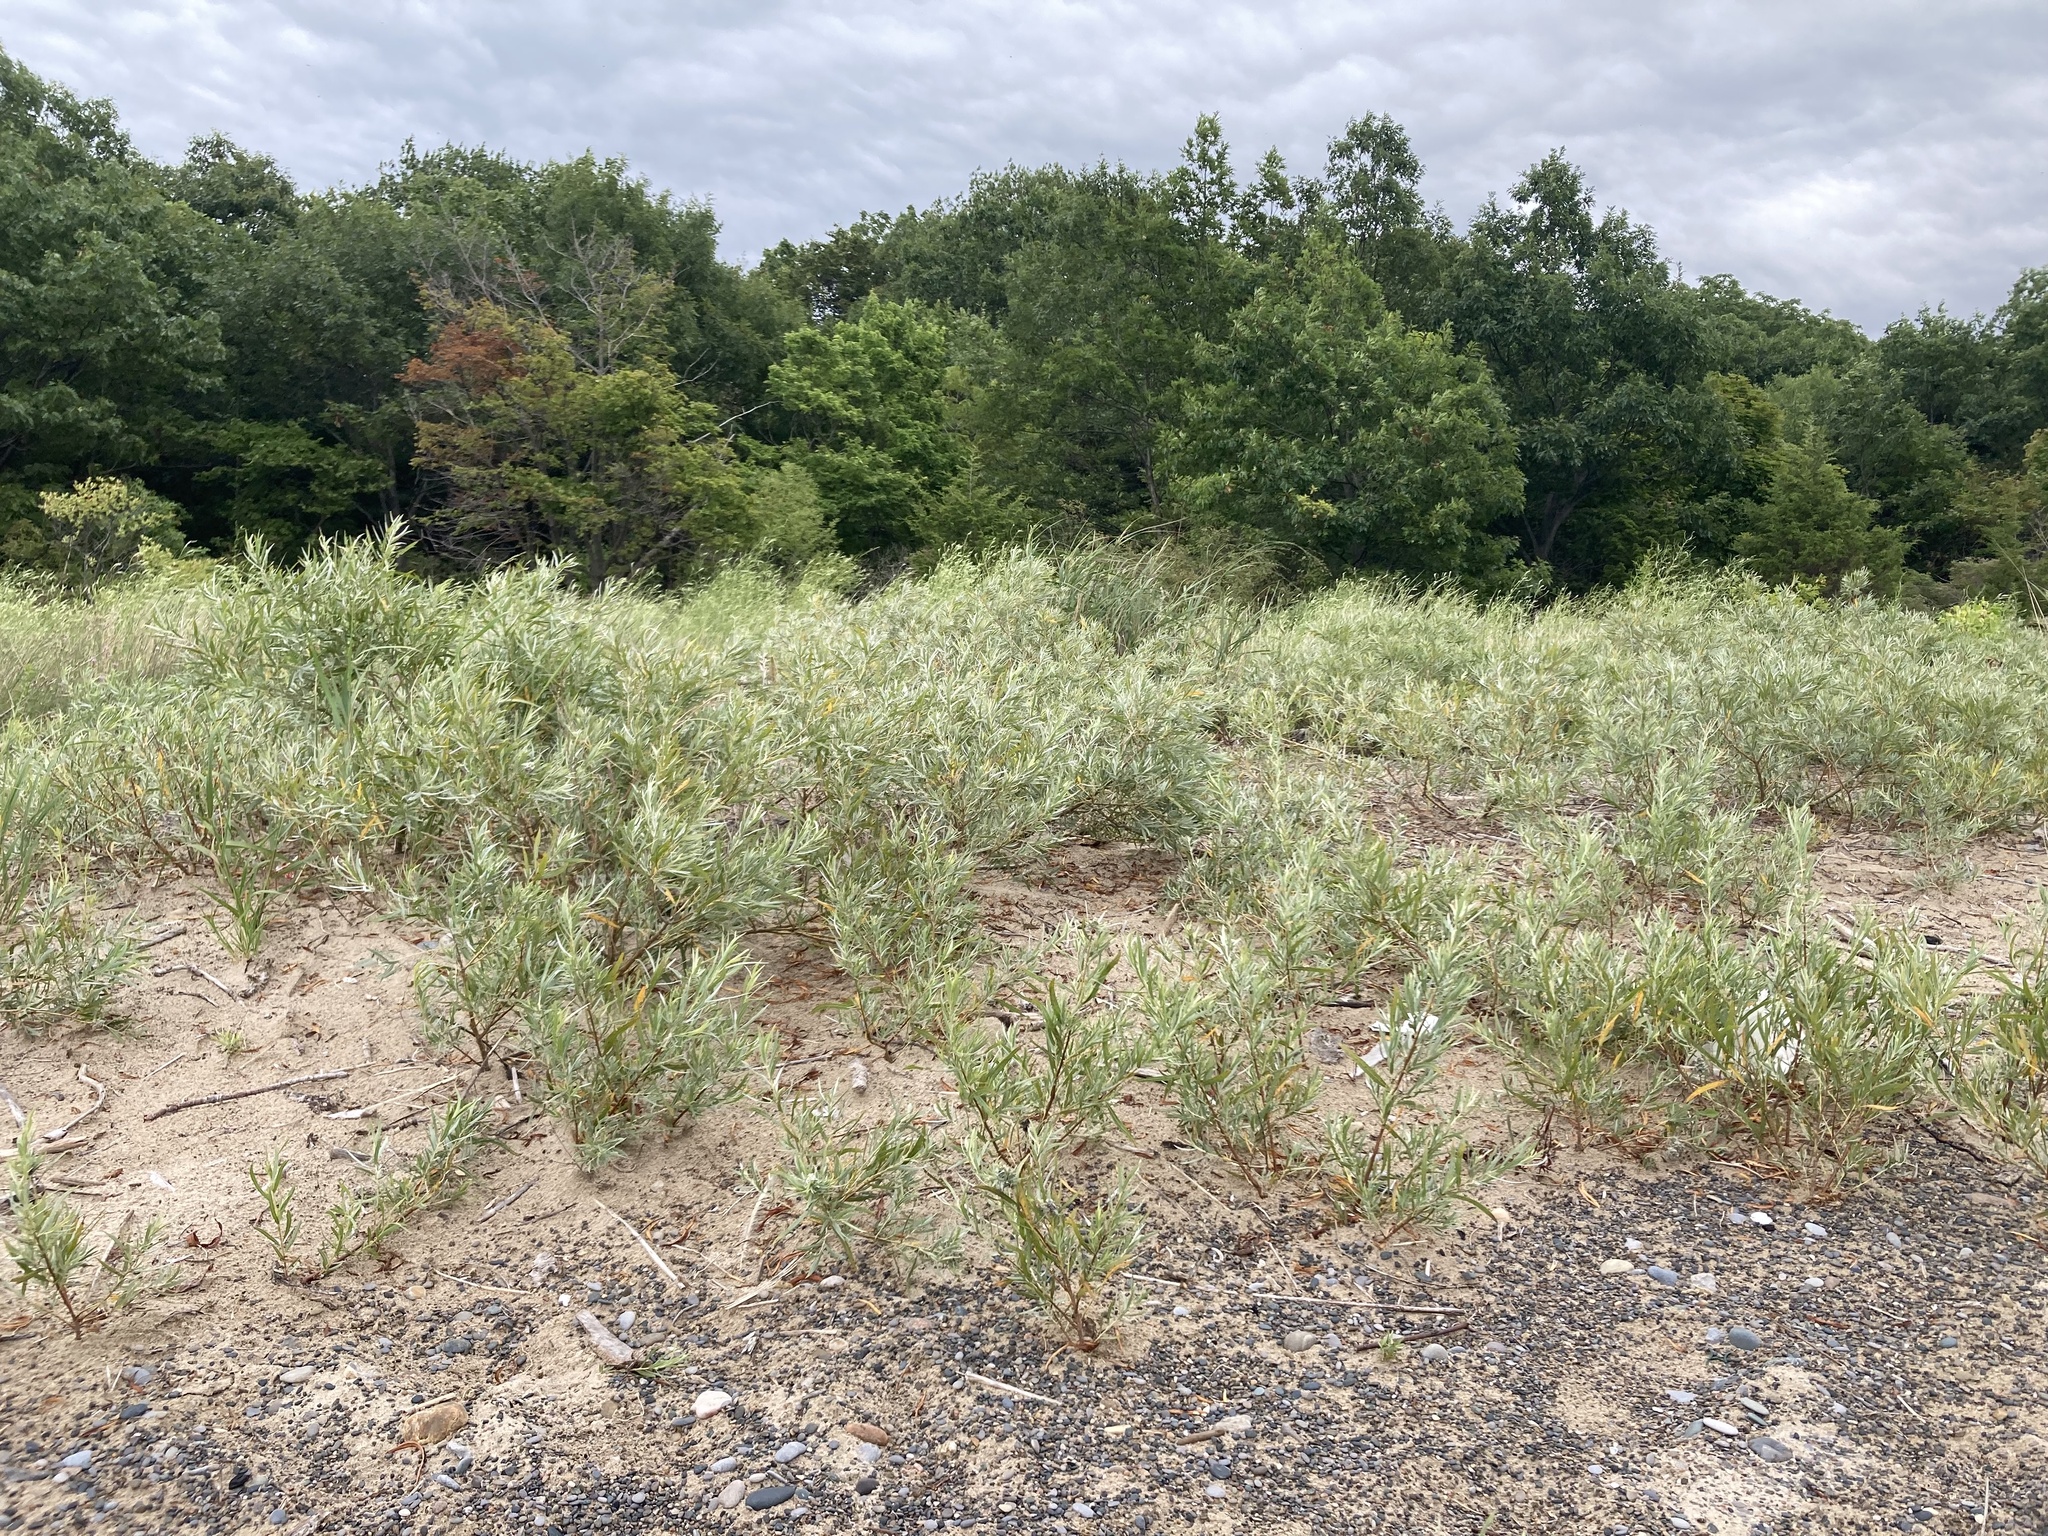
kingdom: Plantae
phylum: Tracheophyta
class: Magnoliopsida
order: Malpighiales
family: Salicaceae
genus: Salix
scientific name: Salix interior
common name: Sandbar willow
